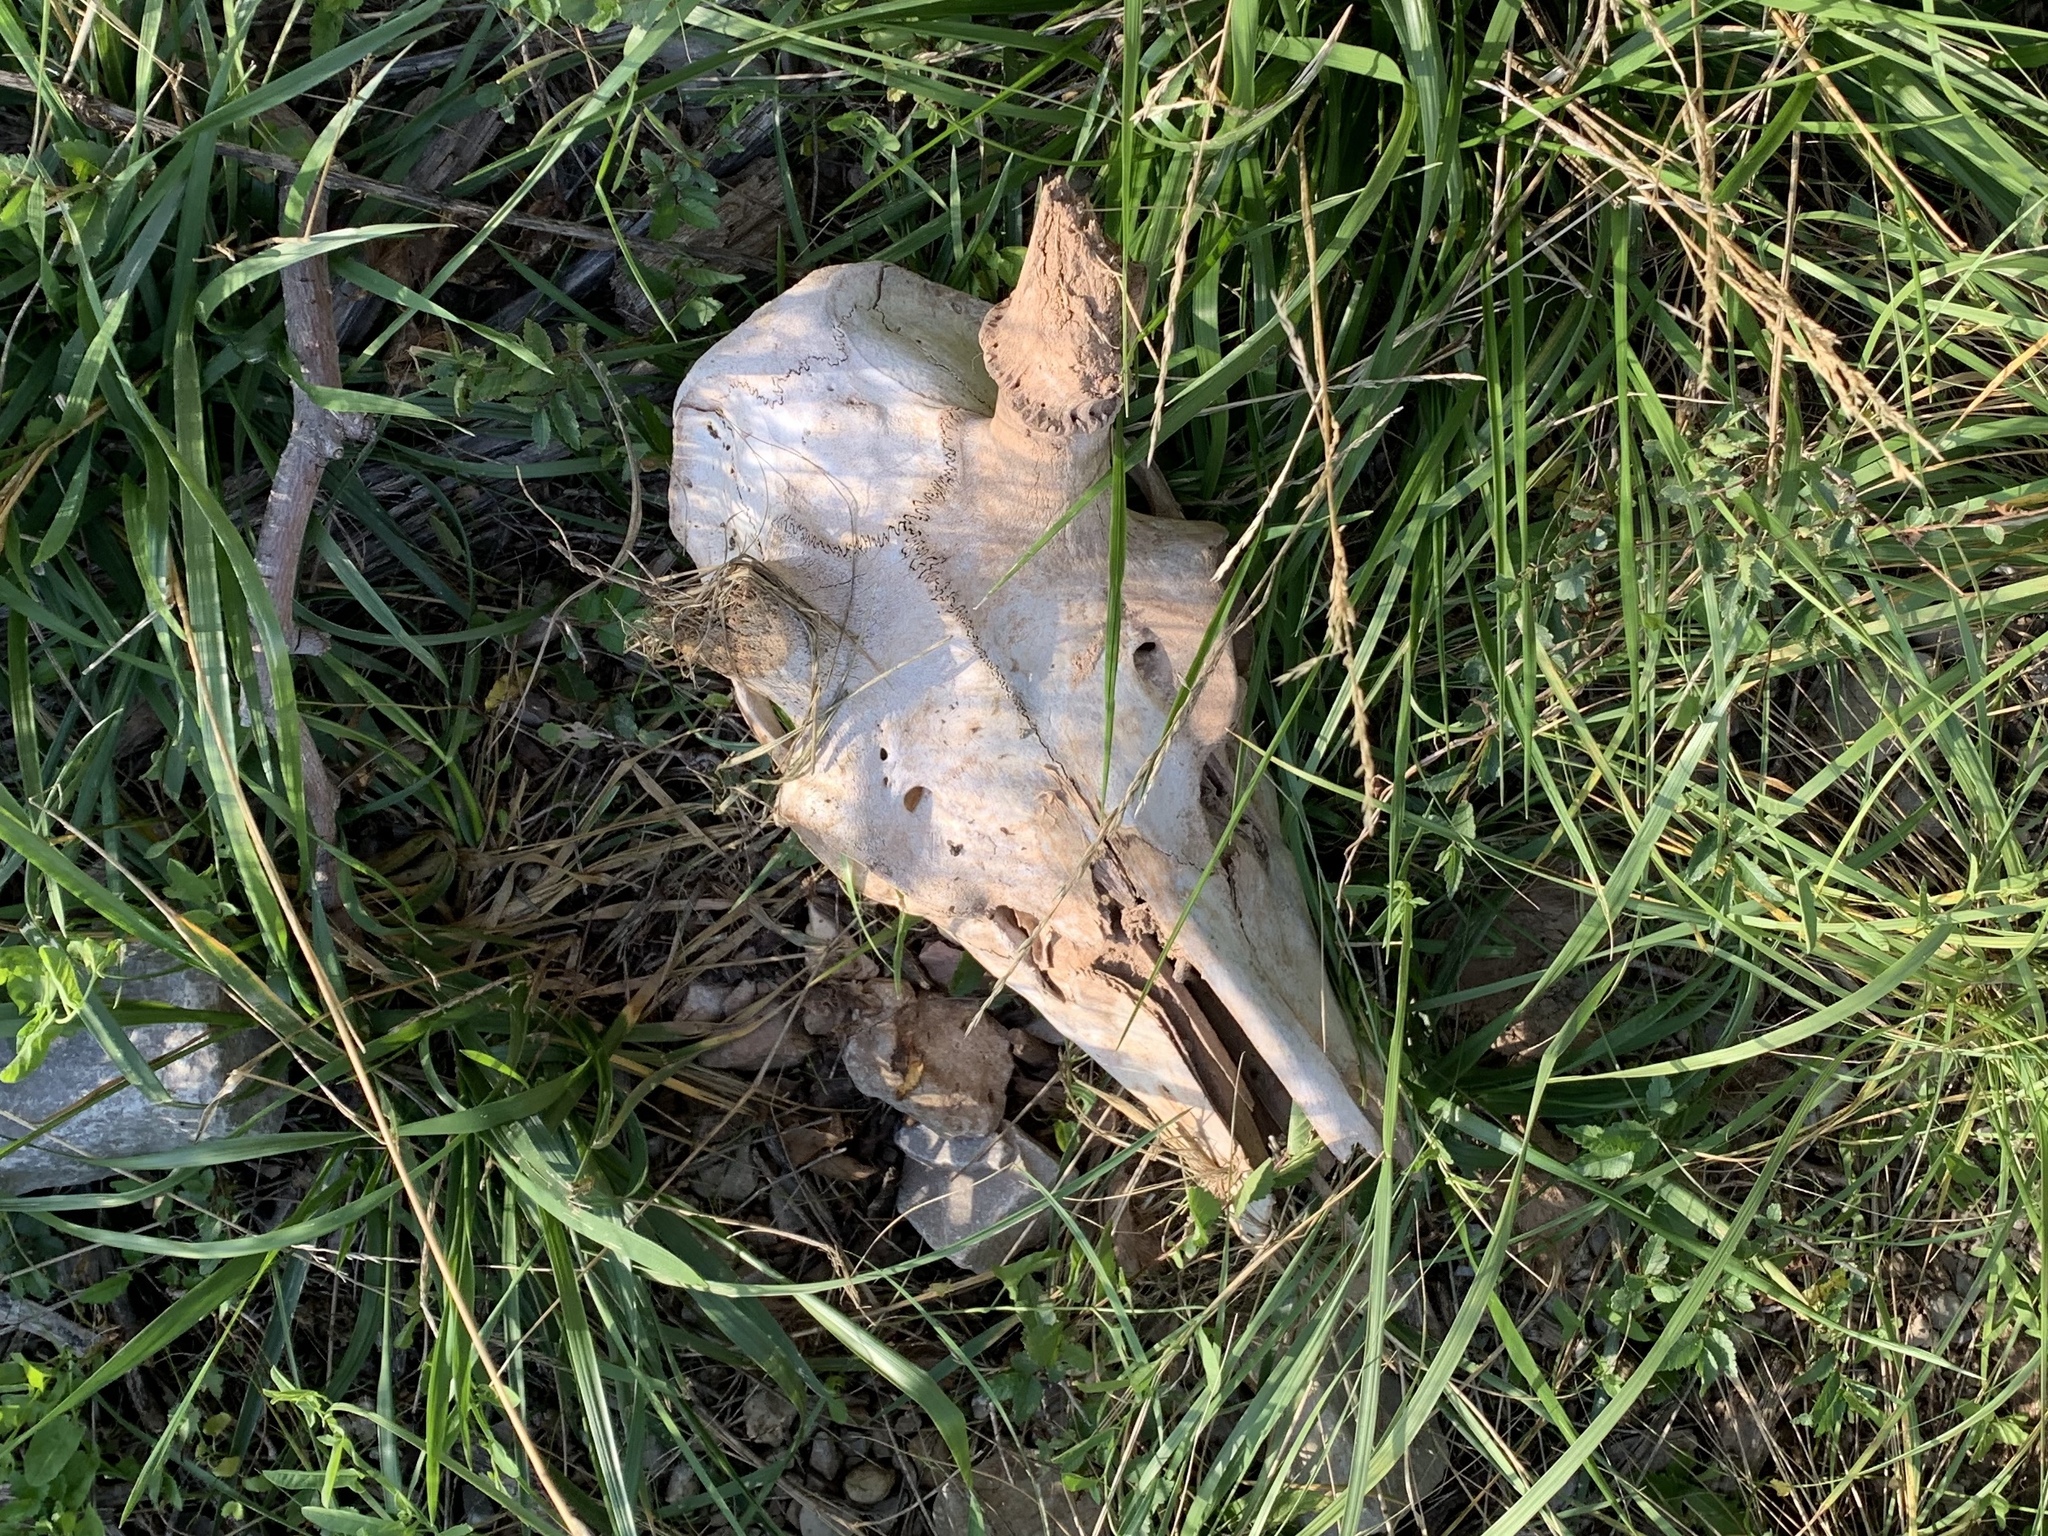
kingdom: Animalia
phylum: Chordata
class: Mammalia
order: Artiodactyla
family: Cervidae
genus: Cervus
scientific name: Cervus elaphus
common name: Red deer
